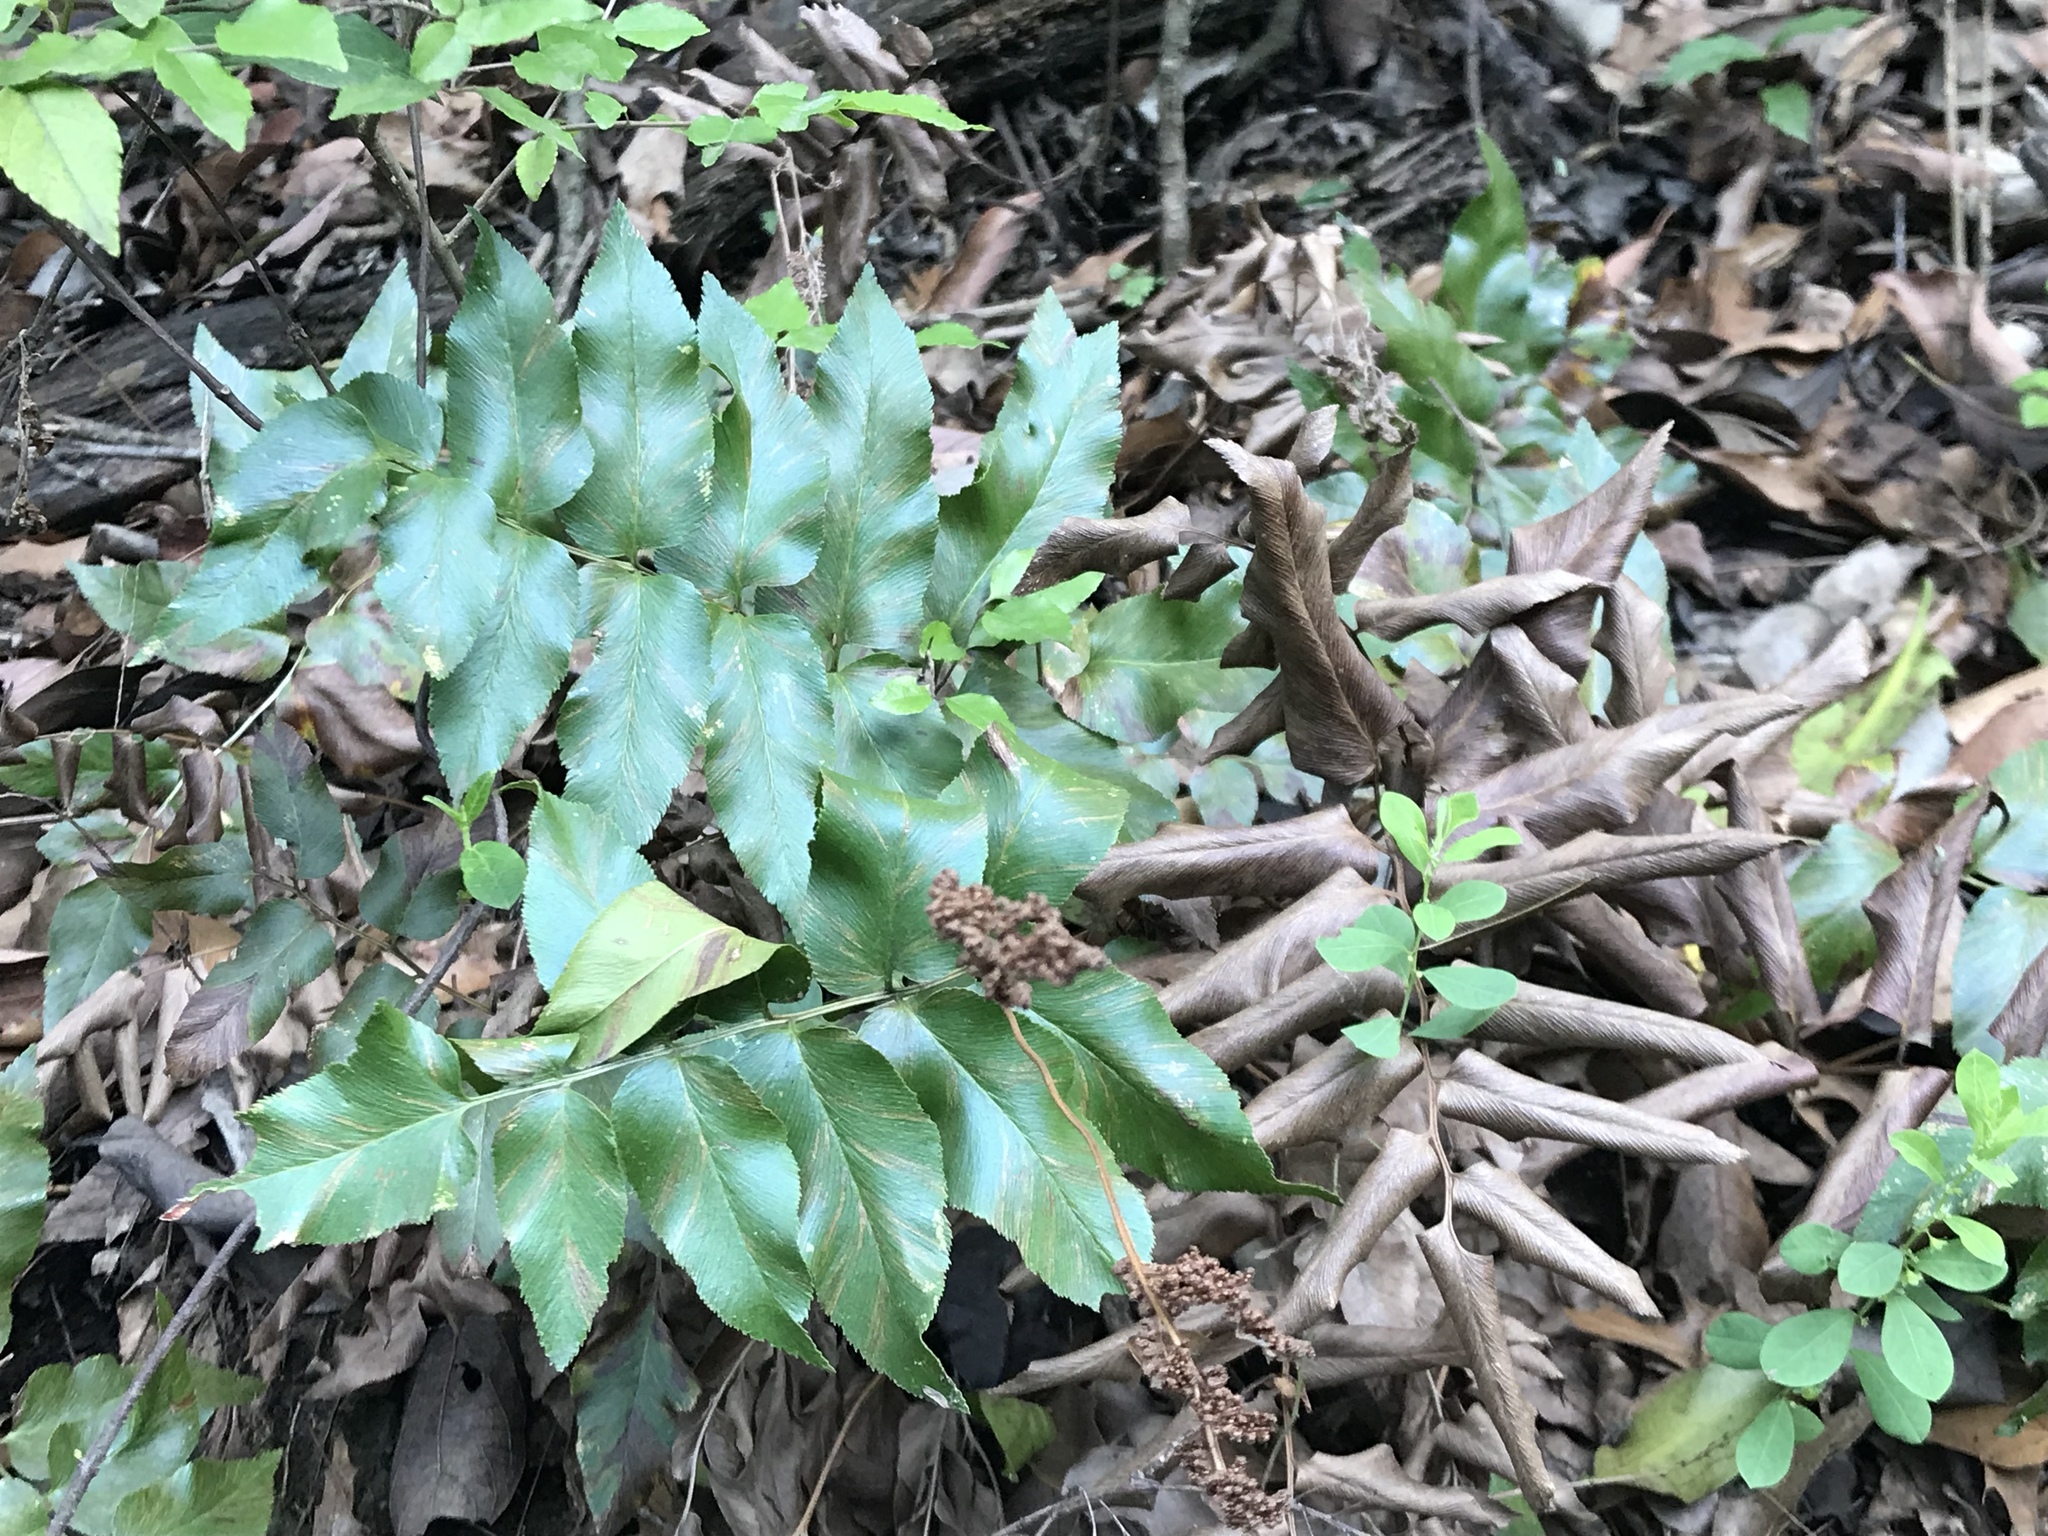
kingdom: Plantae
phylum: Tracheophyta
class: Polypodiopsida
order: Schizaeales
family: Anemiaceae
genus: Anemia
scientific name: Anemia mexicana
